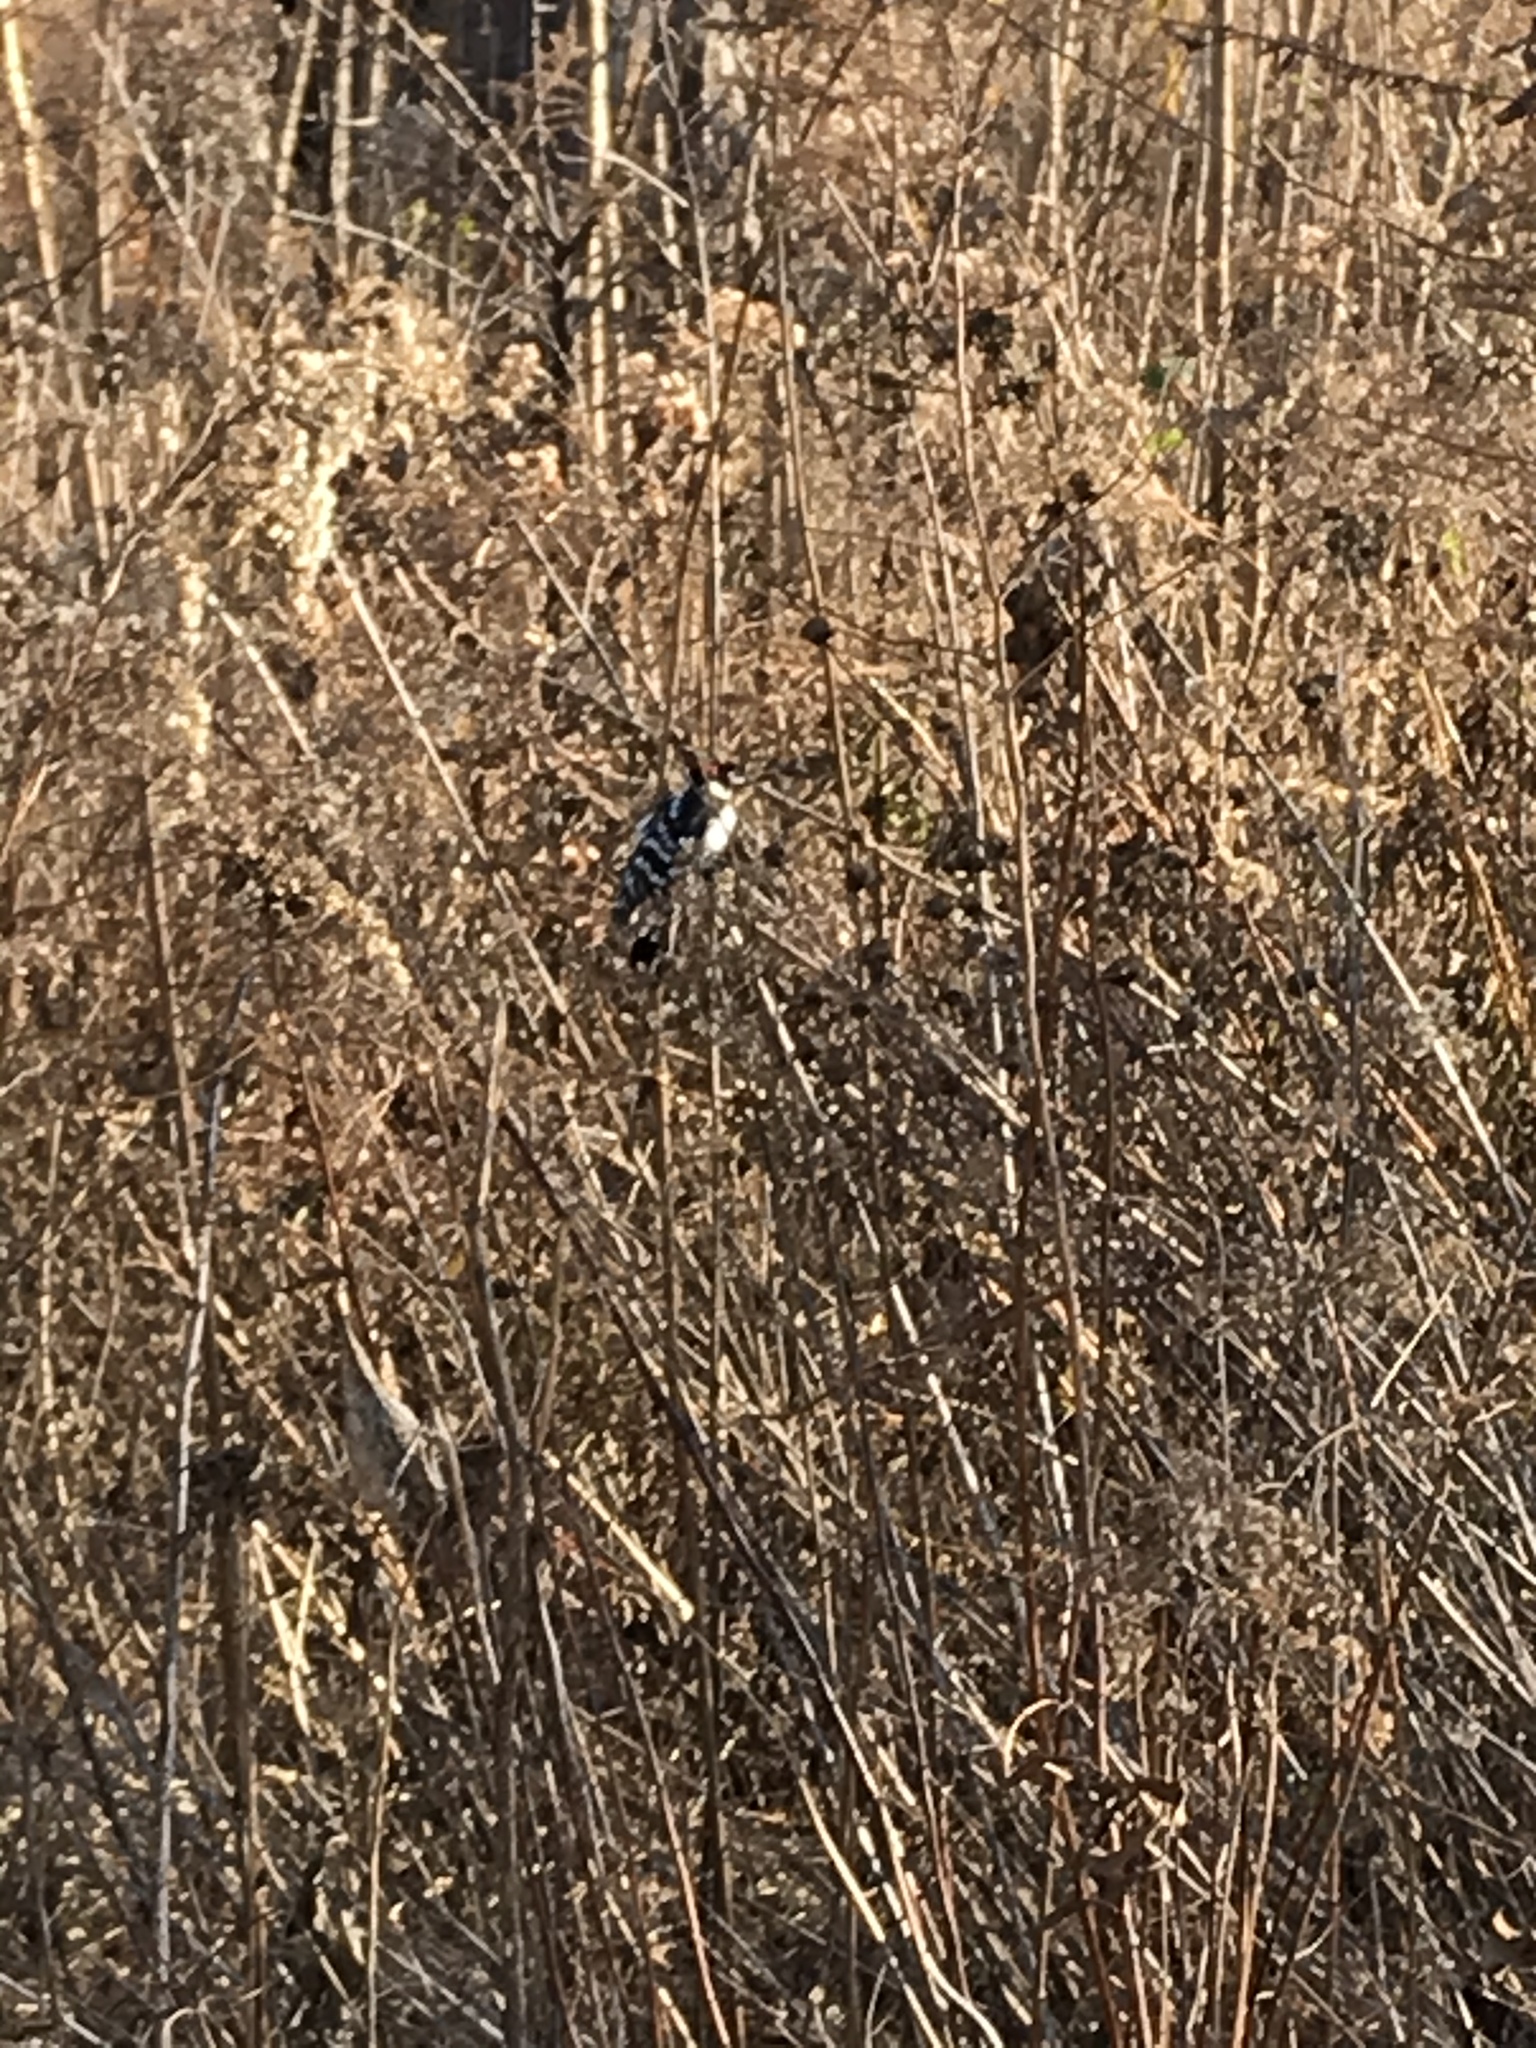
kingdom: Animalia
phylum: Chordata
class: Aves
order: Piciformes
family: Picidae
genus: Dryobates
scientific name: Dryobates pubescens
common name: Downy woodpecker
